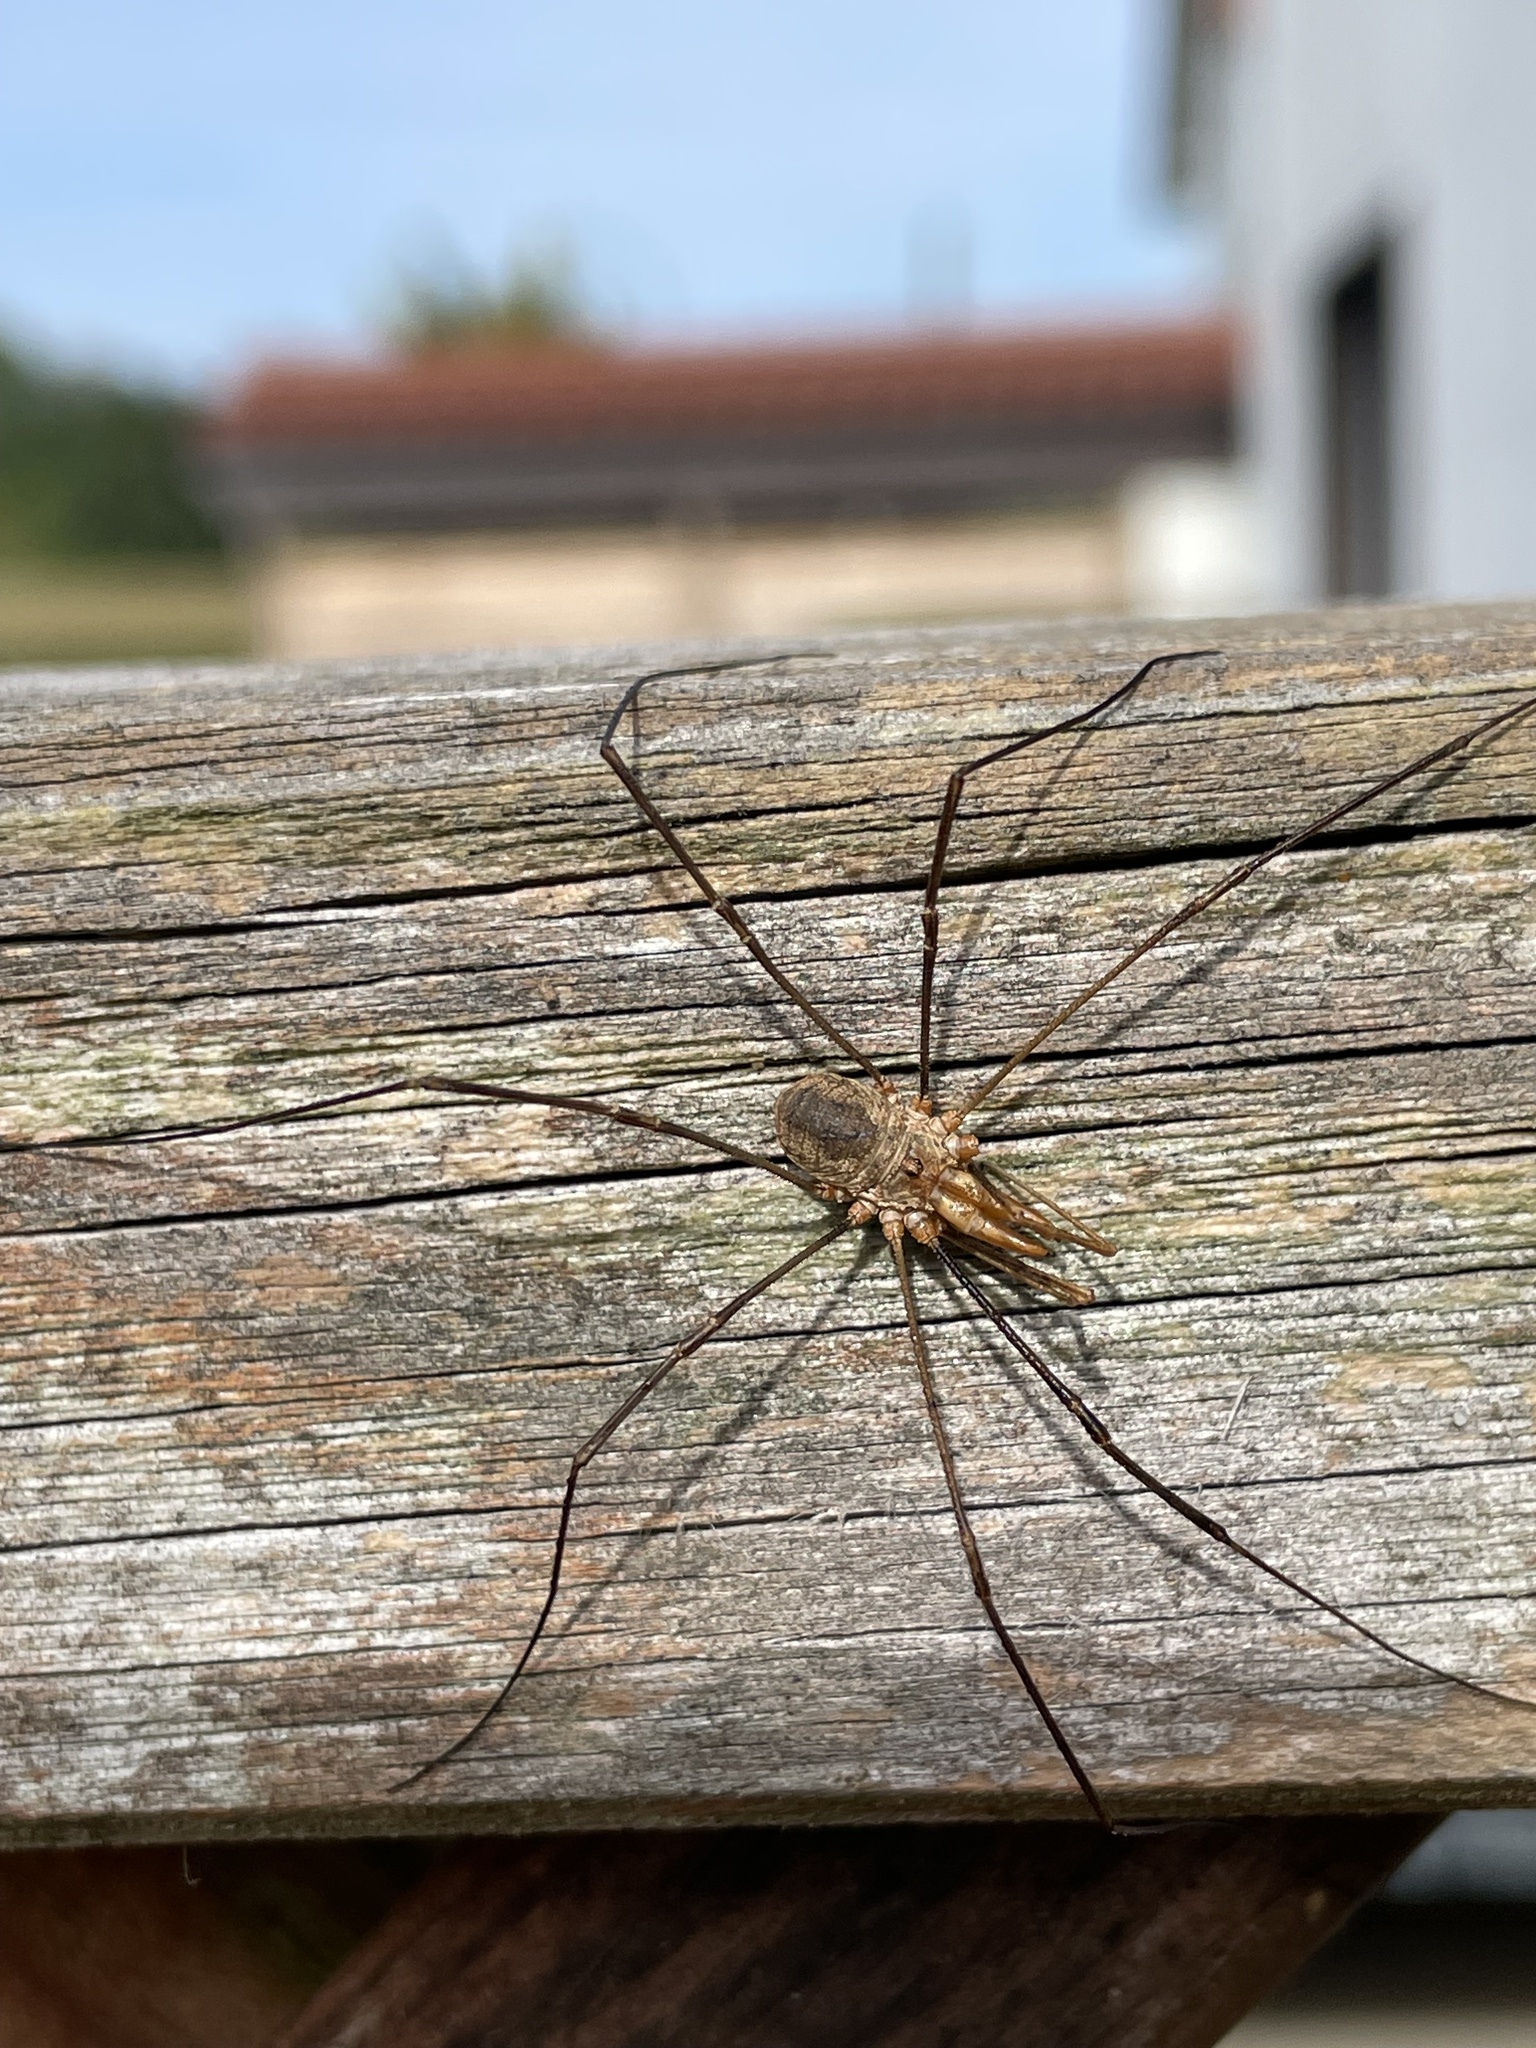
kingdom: Animalia
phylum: Arthropoda
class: Arachnida
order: Opiliones
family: Phalangiidae
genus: Phalangium
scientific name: Phalangium opilio
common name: Daddy longleg
